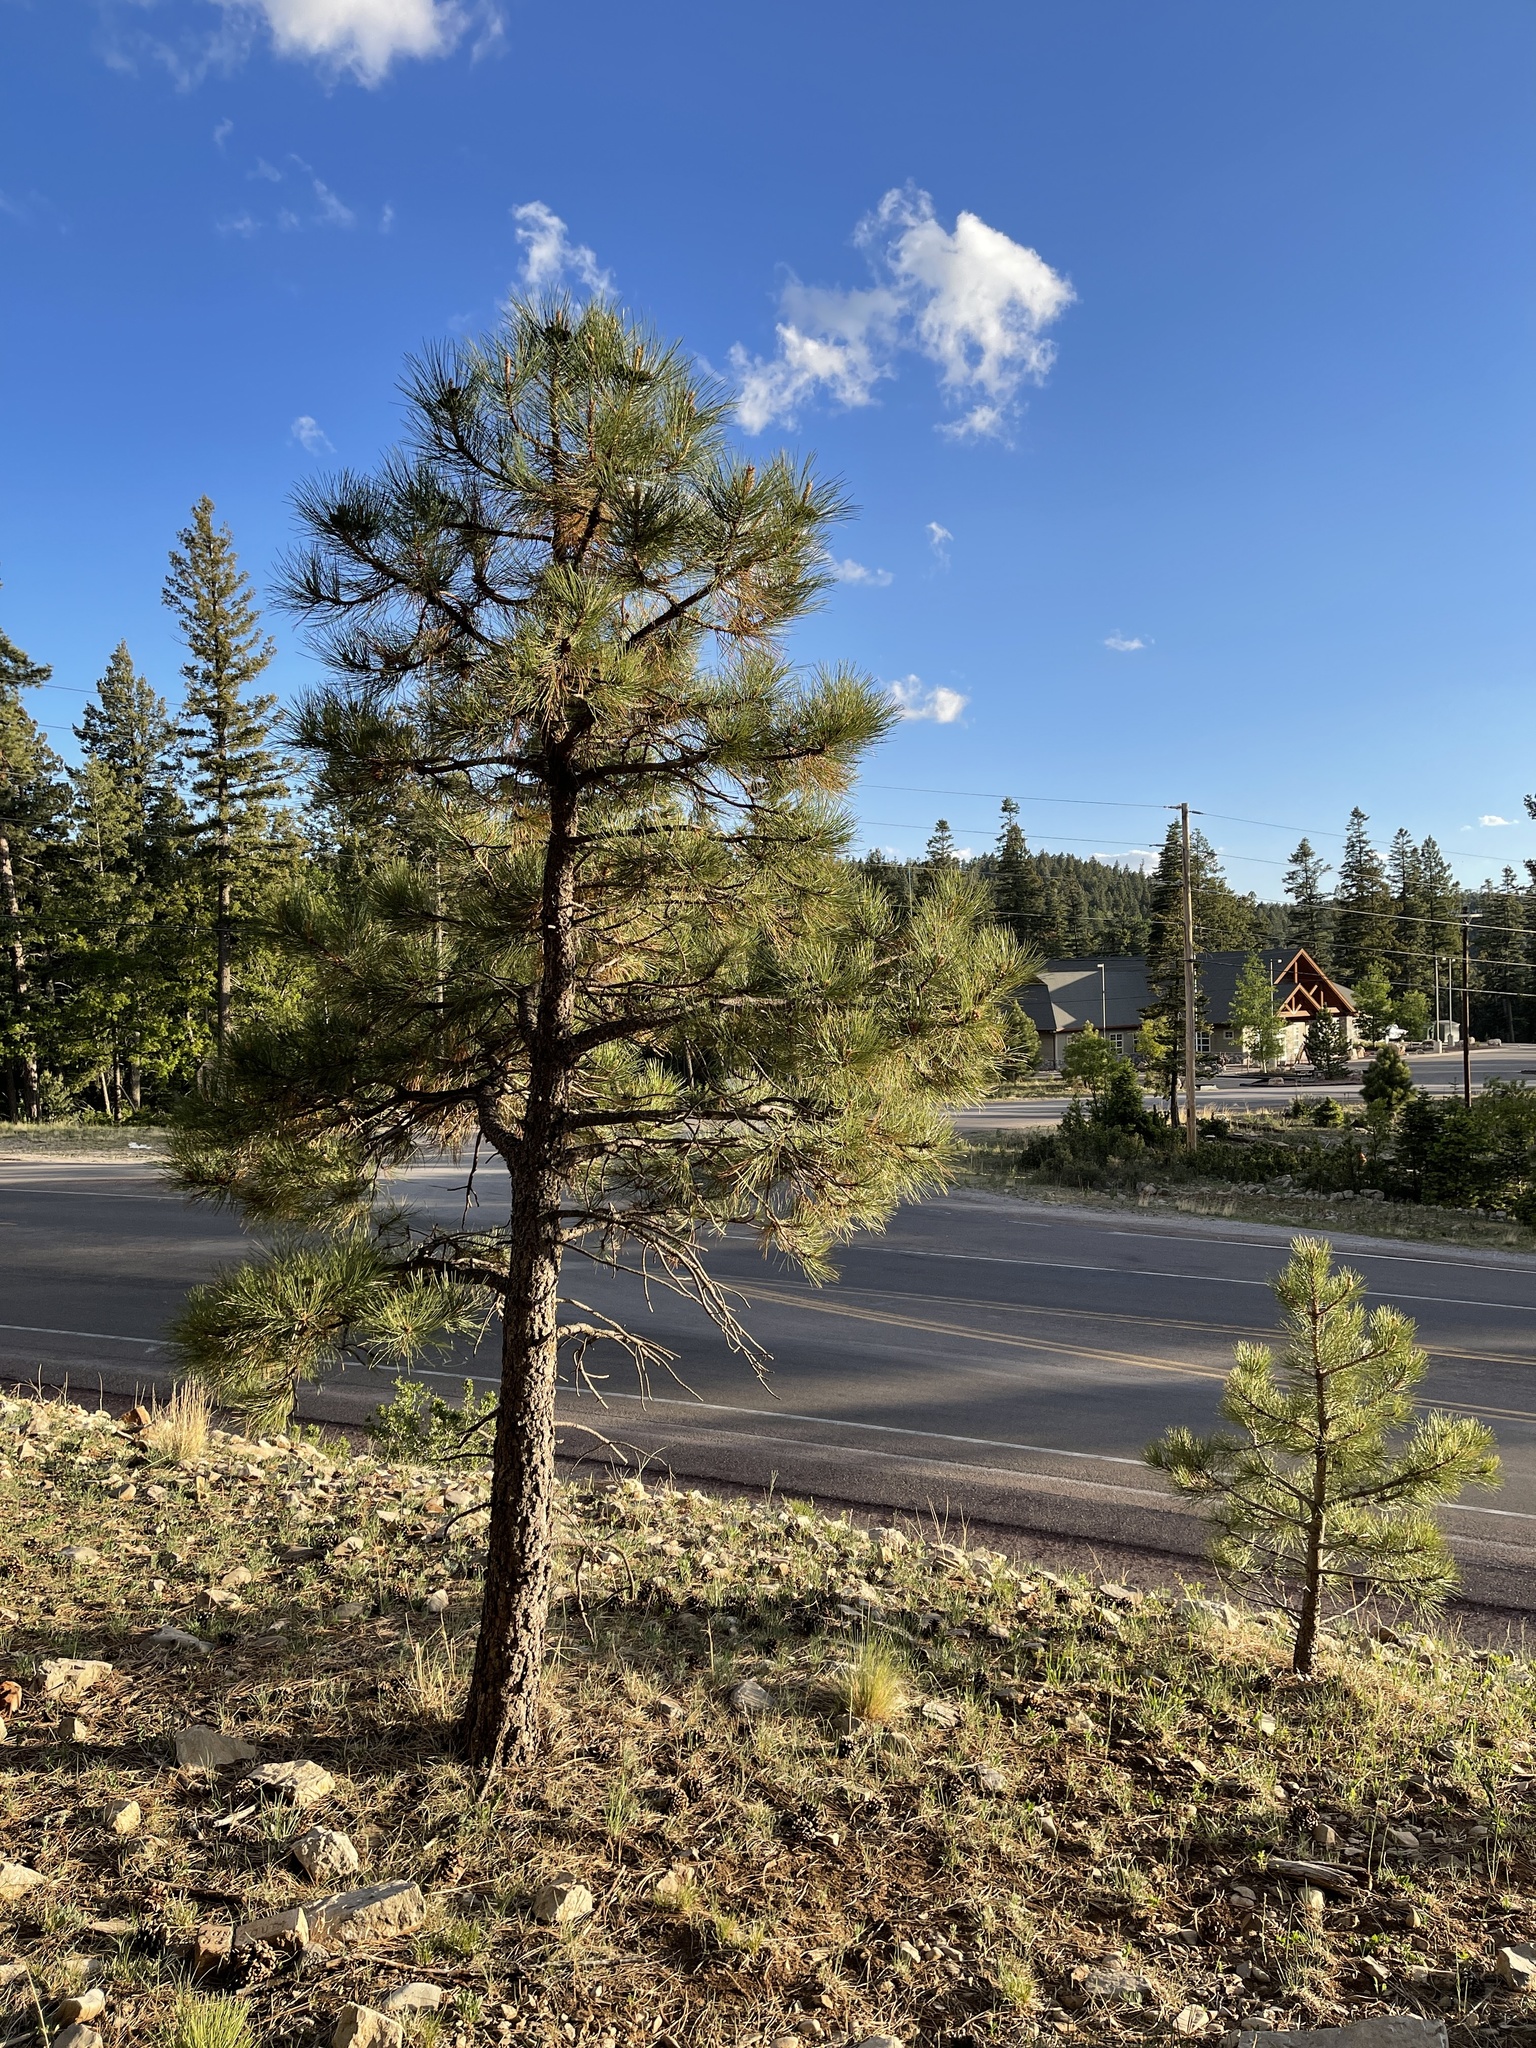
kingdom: Plantae
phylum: Tracheophyta
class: Pinopsida
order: Pinales
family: Pinaceae
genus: Pinus
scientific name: Pinus ponderosa
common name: Western yellow-pine
